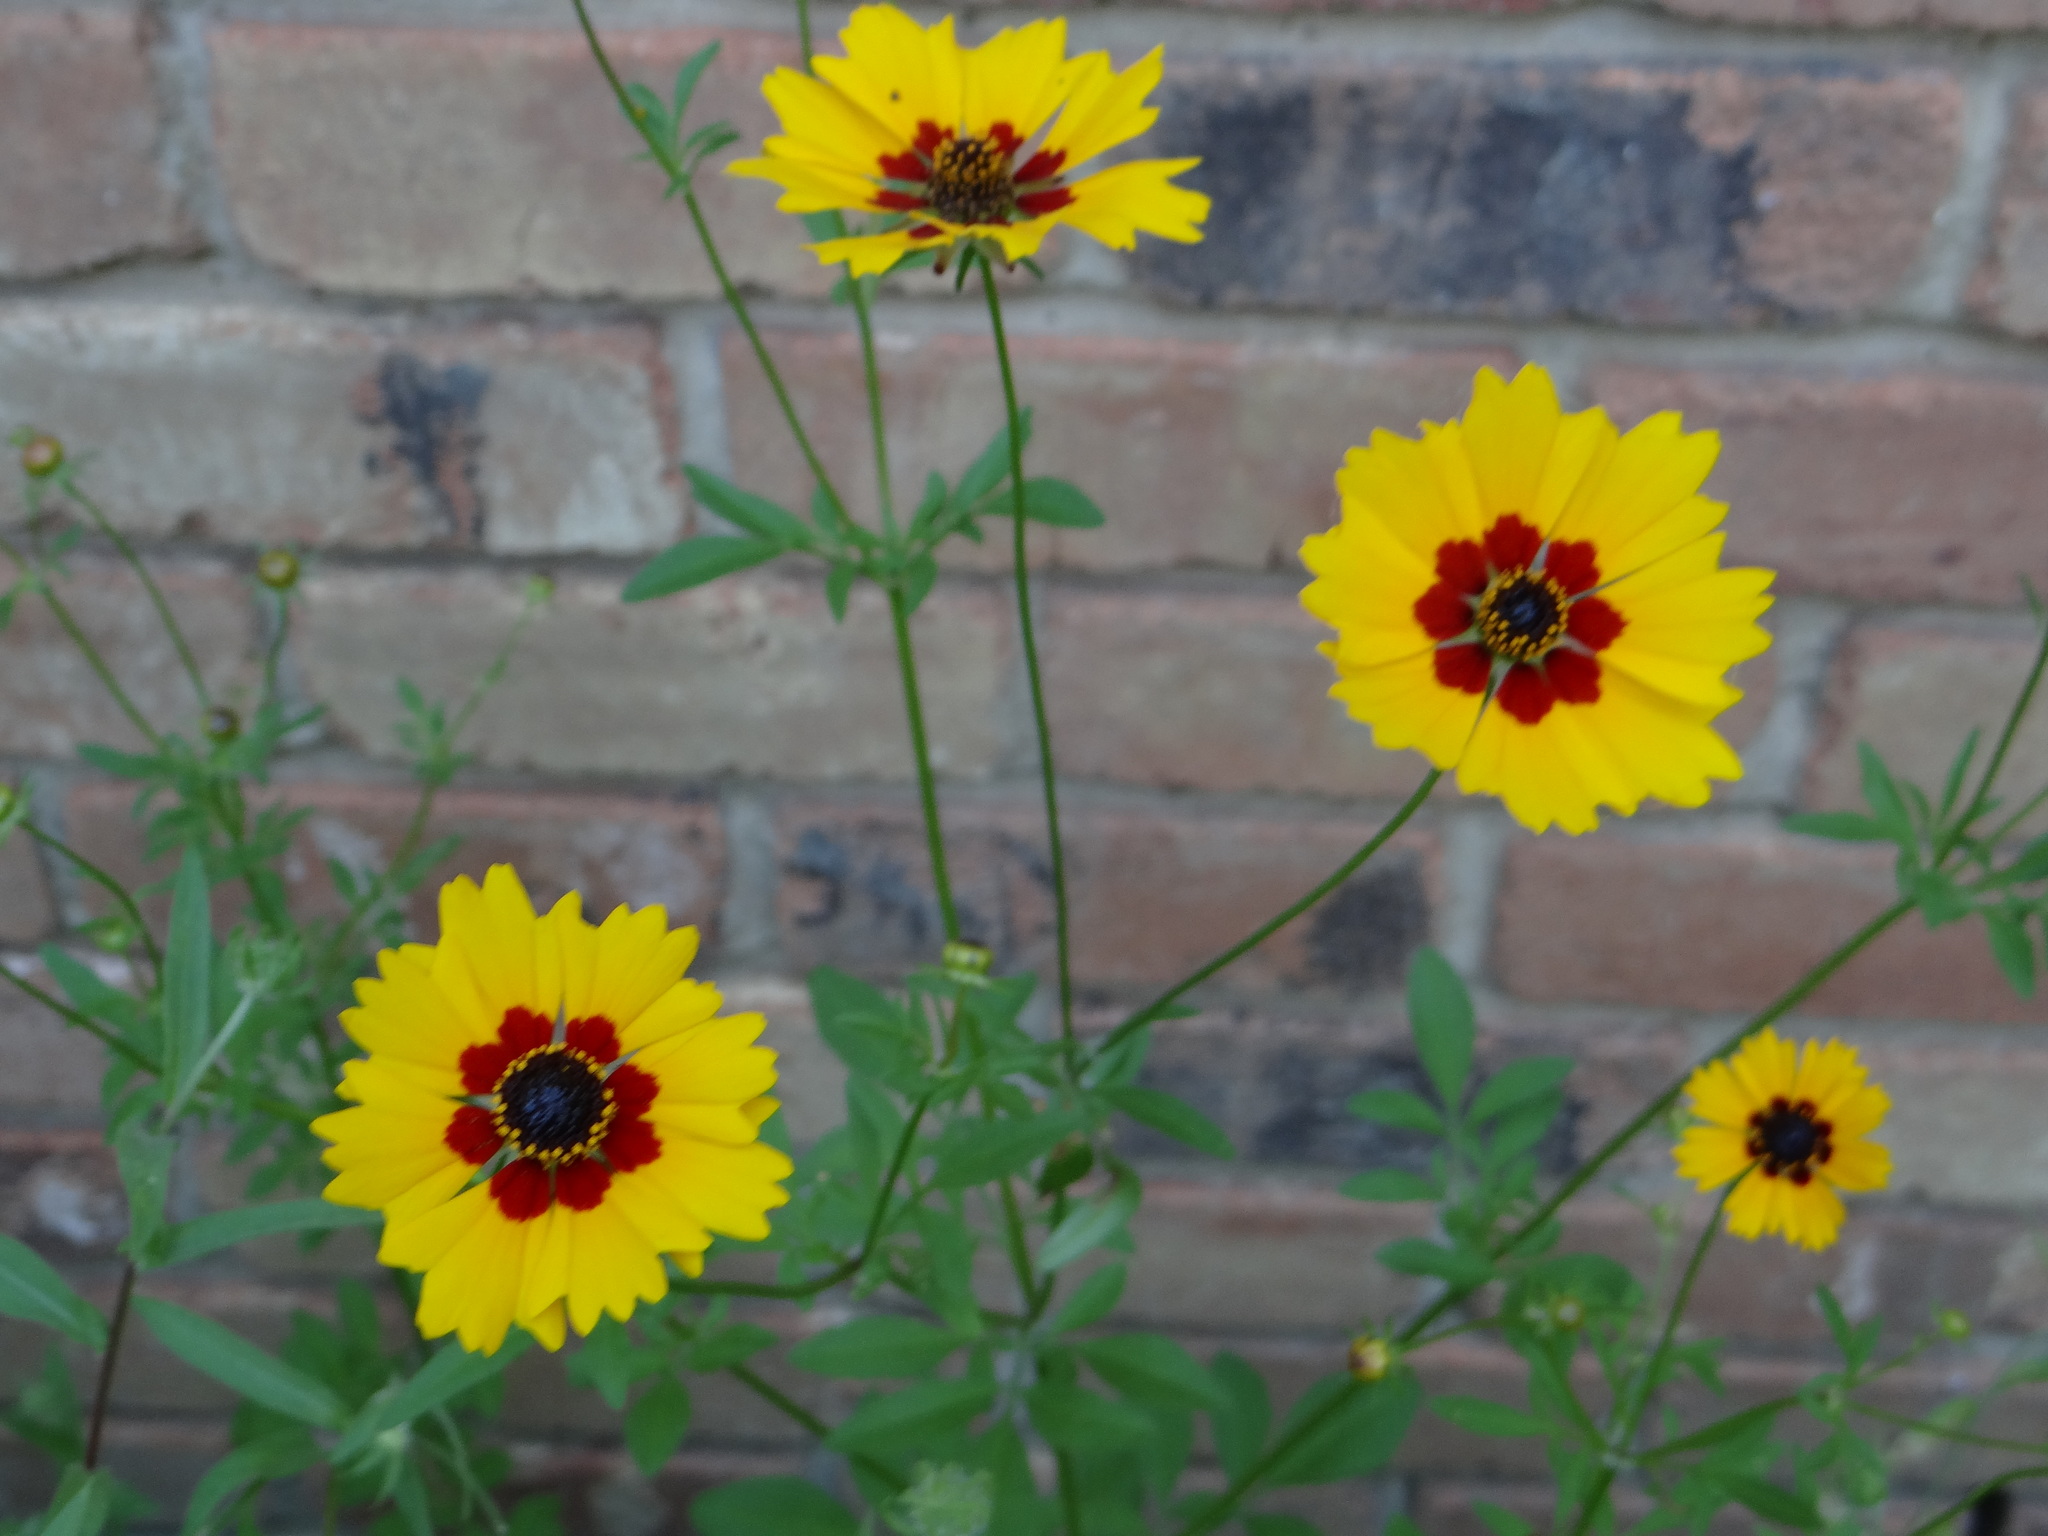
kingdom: Plantae
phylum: Tracheophyta
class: Magnoliopsida
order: Asterales
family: Asteraceae
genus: Coreopsis
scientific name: Coreopsis basalis
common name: Golden-mane coreopsis
